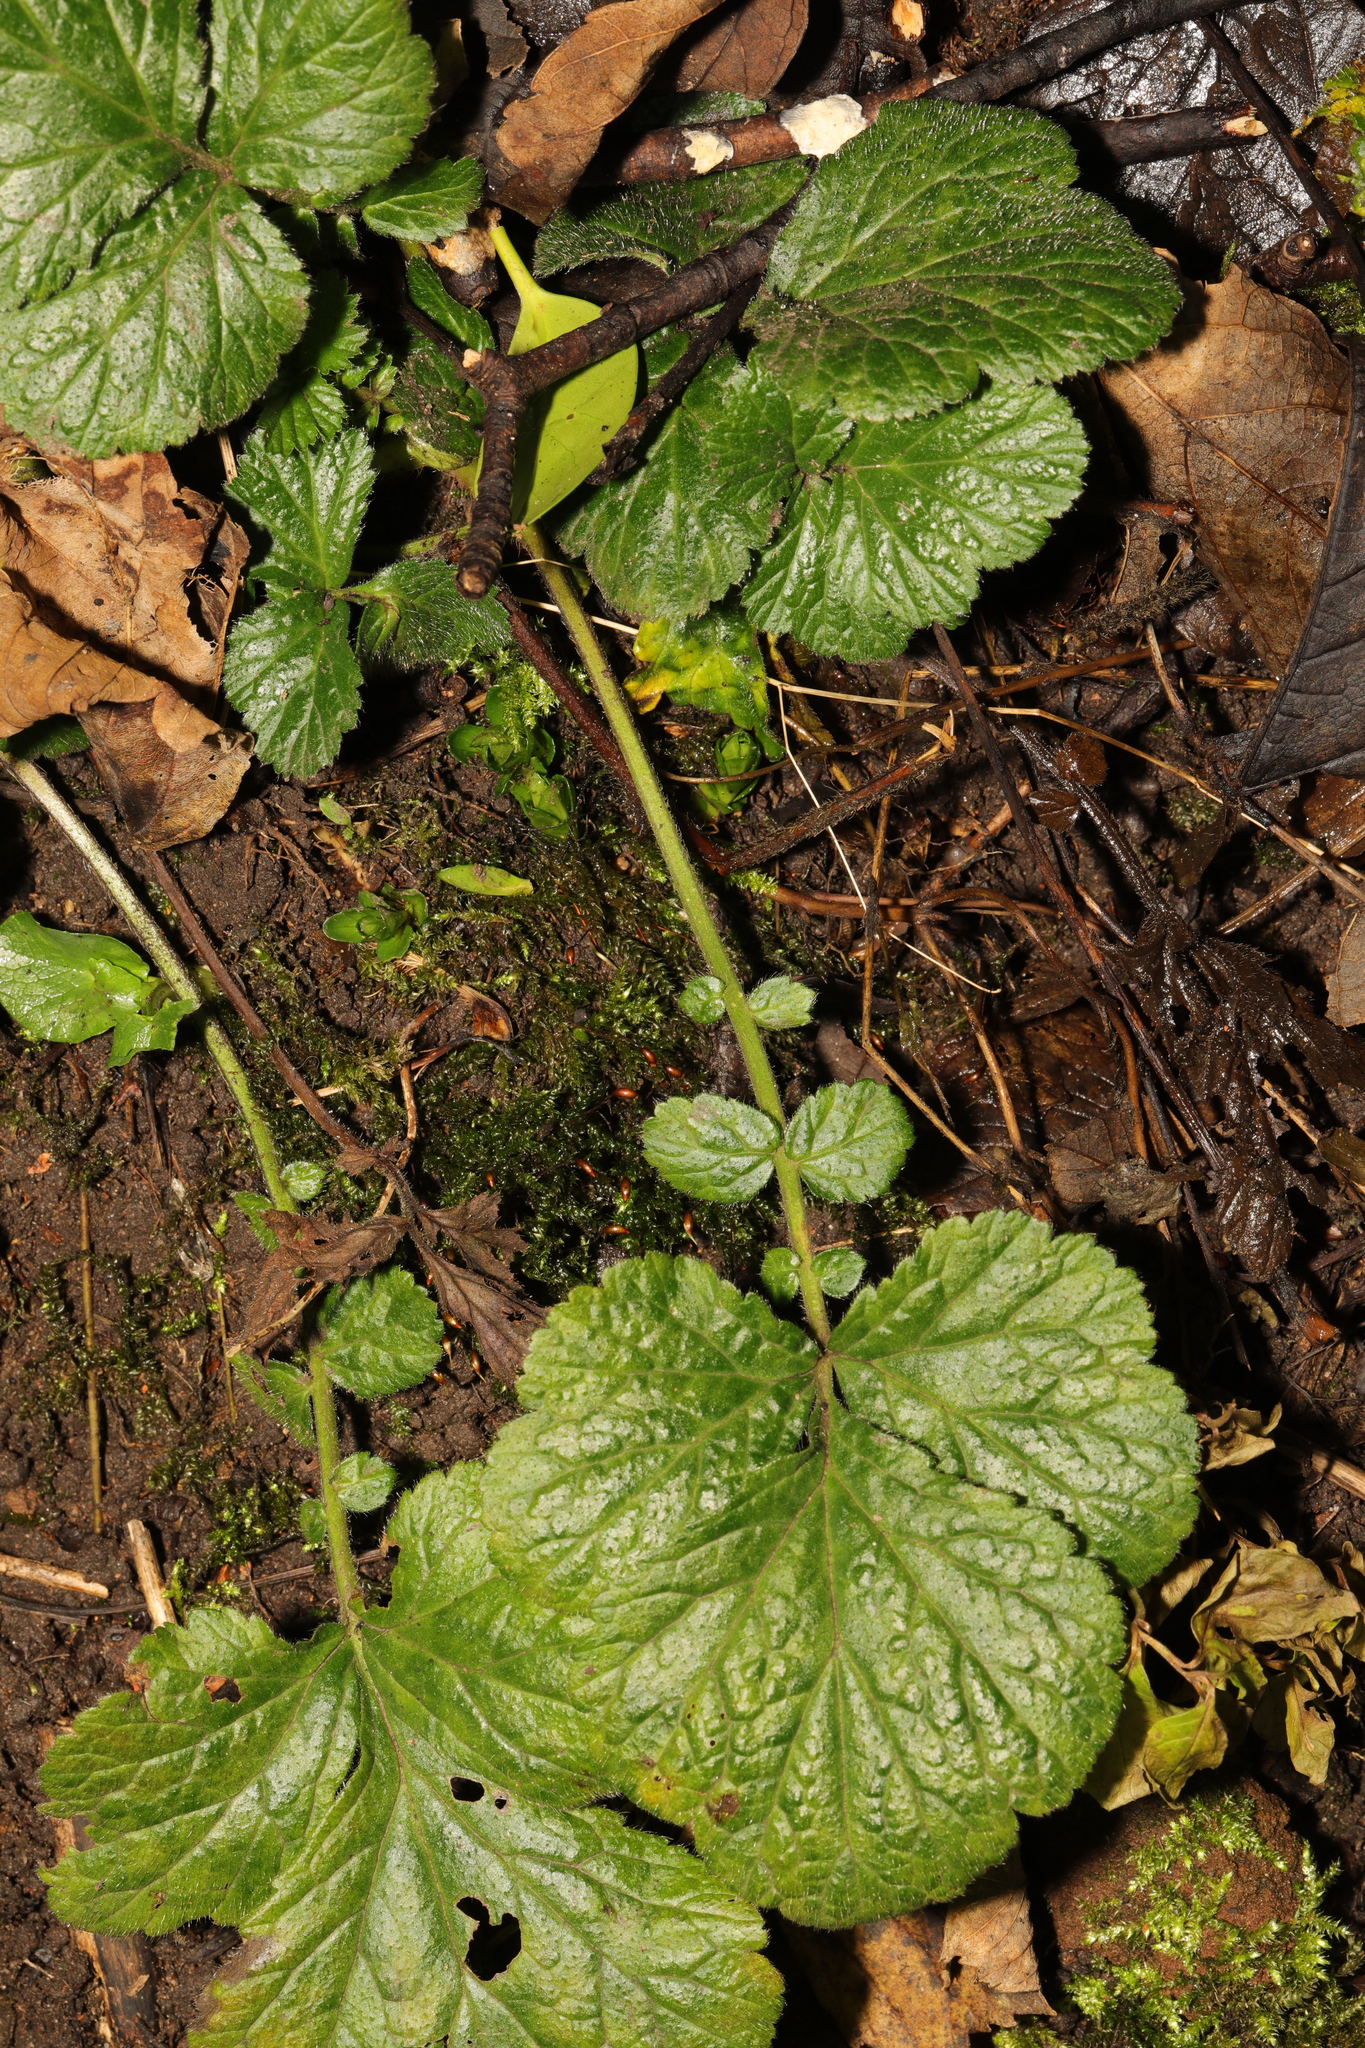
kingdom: Plantae
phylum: Tracheophyta
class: Magnoliopsida
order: Rosales
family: Rosaceae
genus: Geum
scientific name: Geum urbanum
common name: Wood avens
